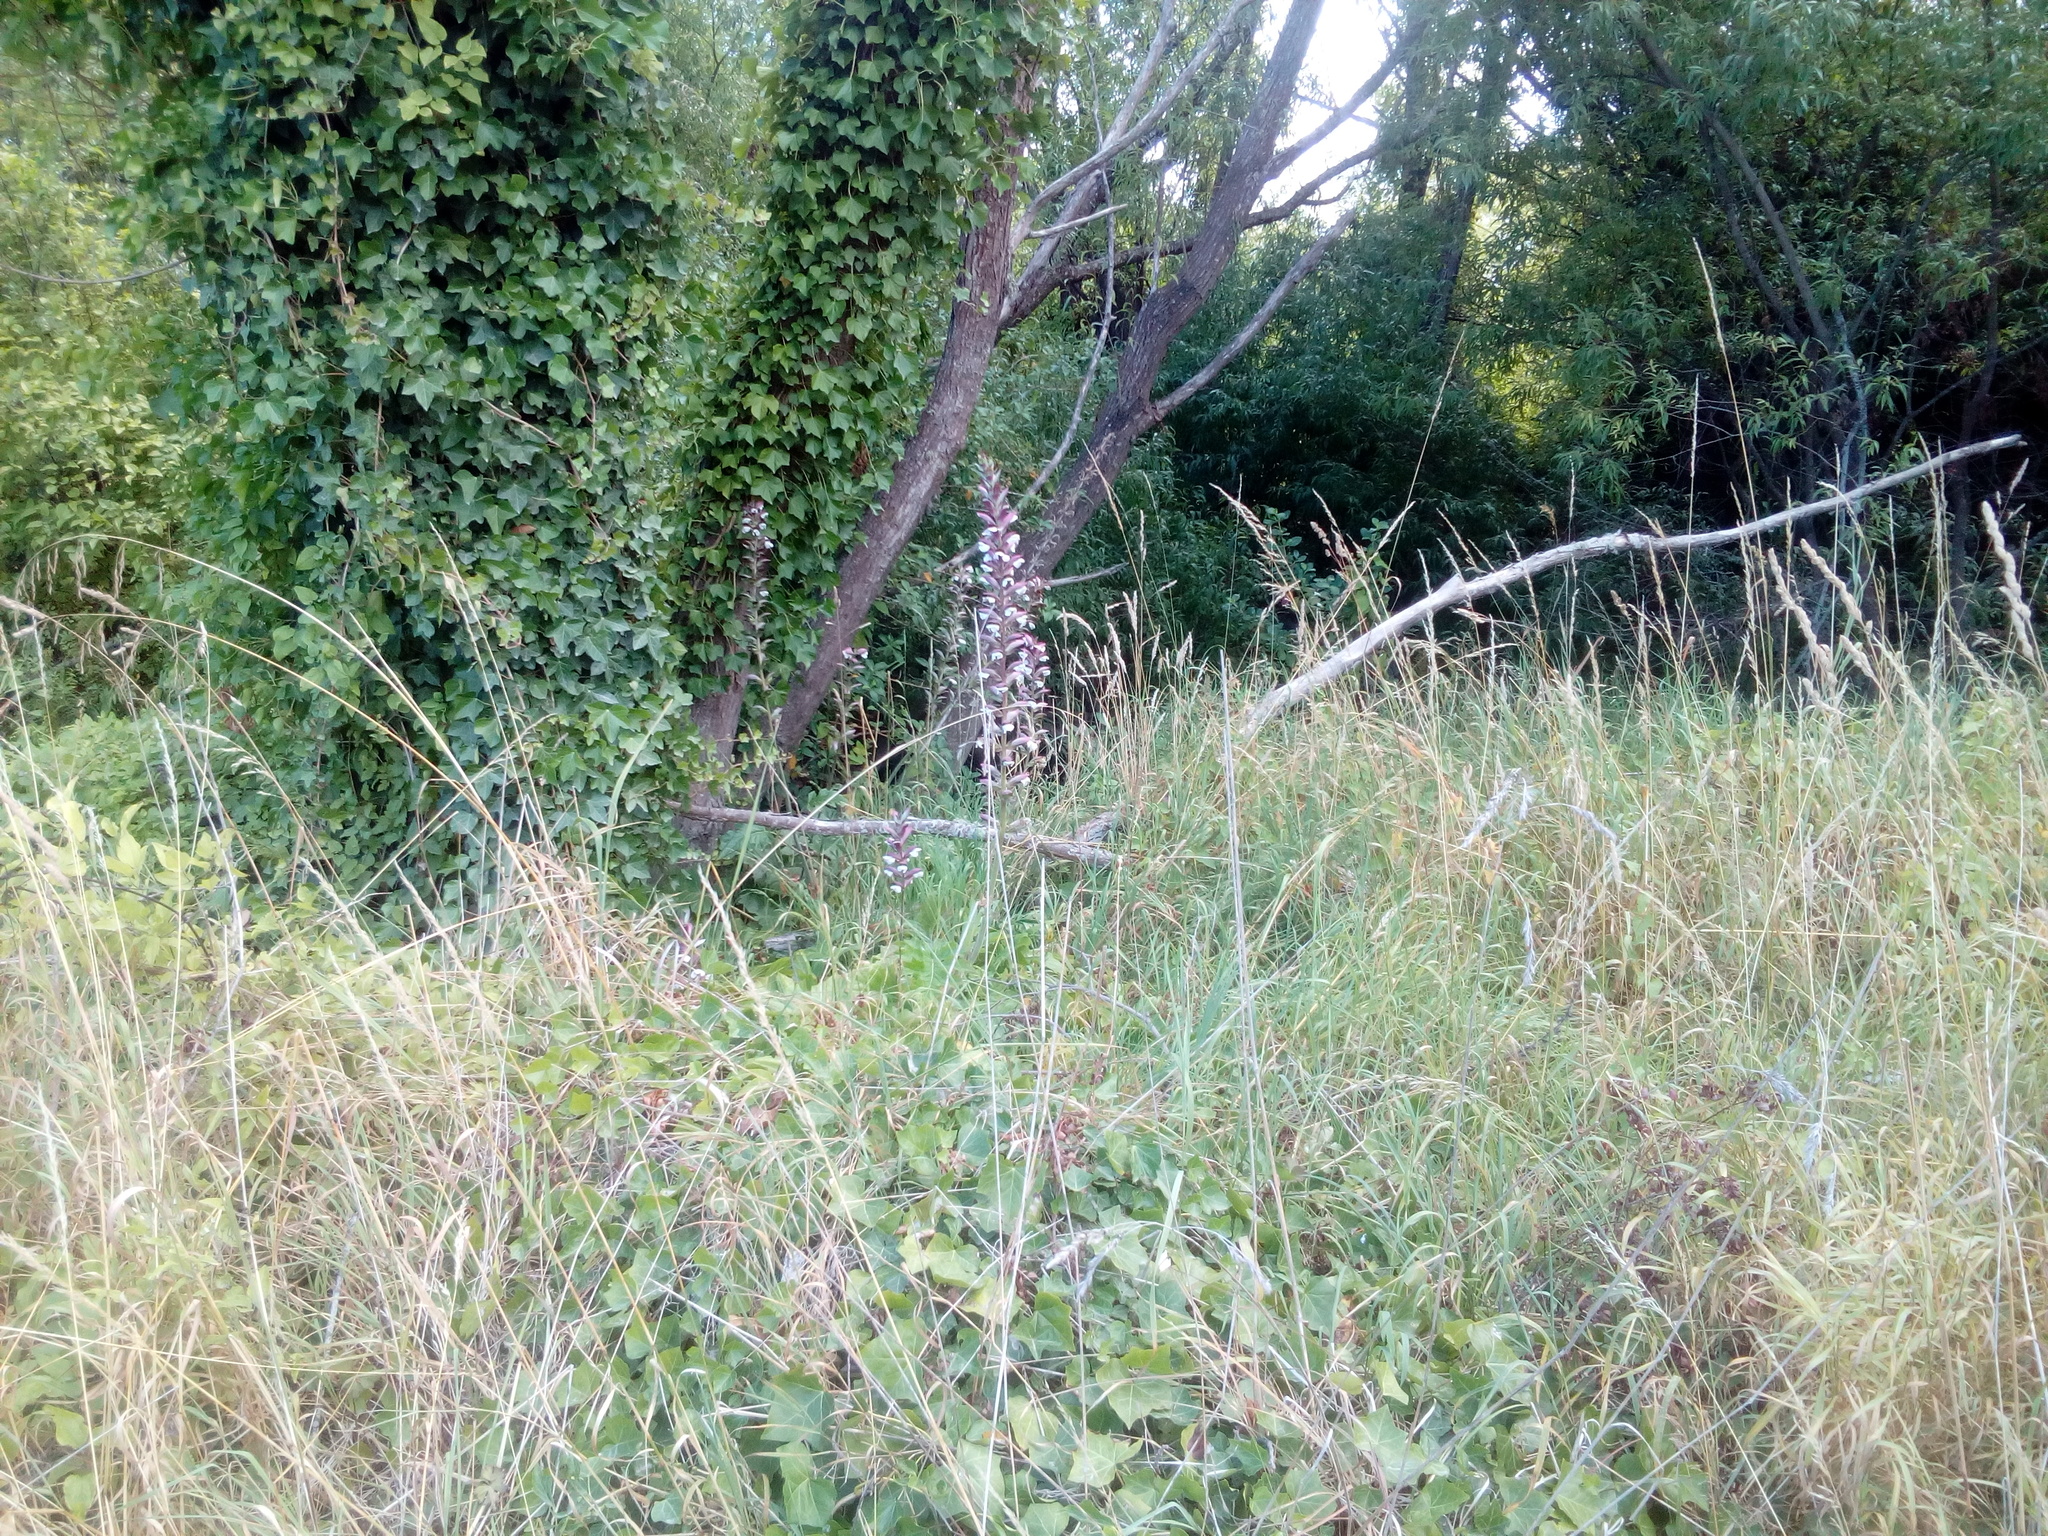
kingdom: Plantae
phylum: Tracheophyta
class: Magnoliopsida
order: Lamiales
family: Acanthaceae
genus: Acanthus
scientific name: Acanthus mollis
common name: Bear's-breech
